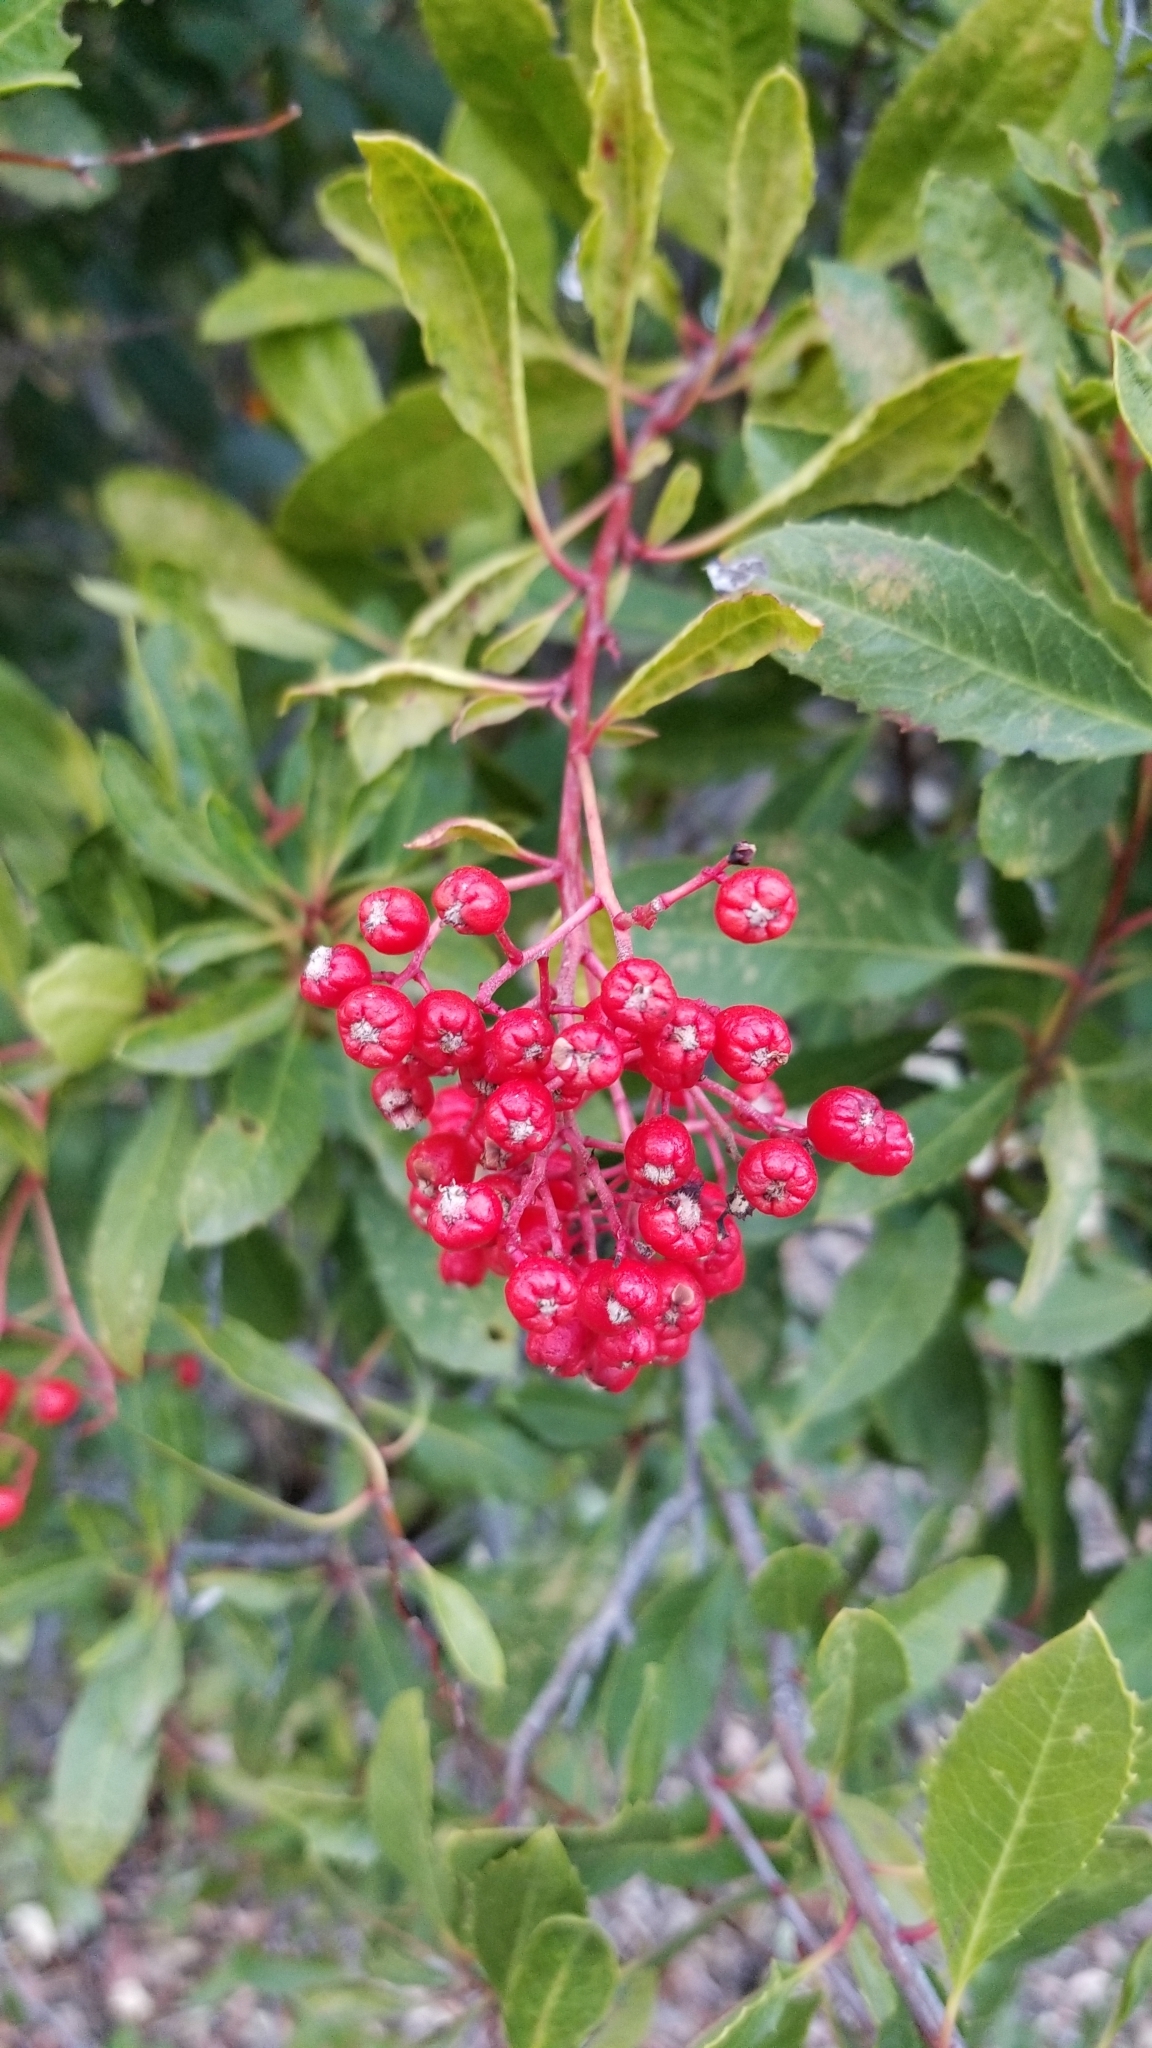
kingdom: Plantae
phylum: Tracheophyta
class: Magnoliopsida
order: Rosales
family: Rosaceae
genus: Heteromeles
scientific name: Heteromeles arbutifolia
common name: California-holly
